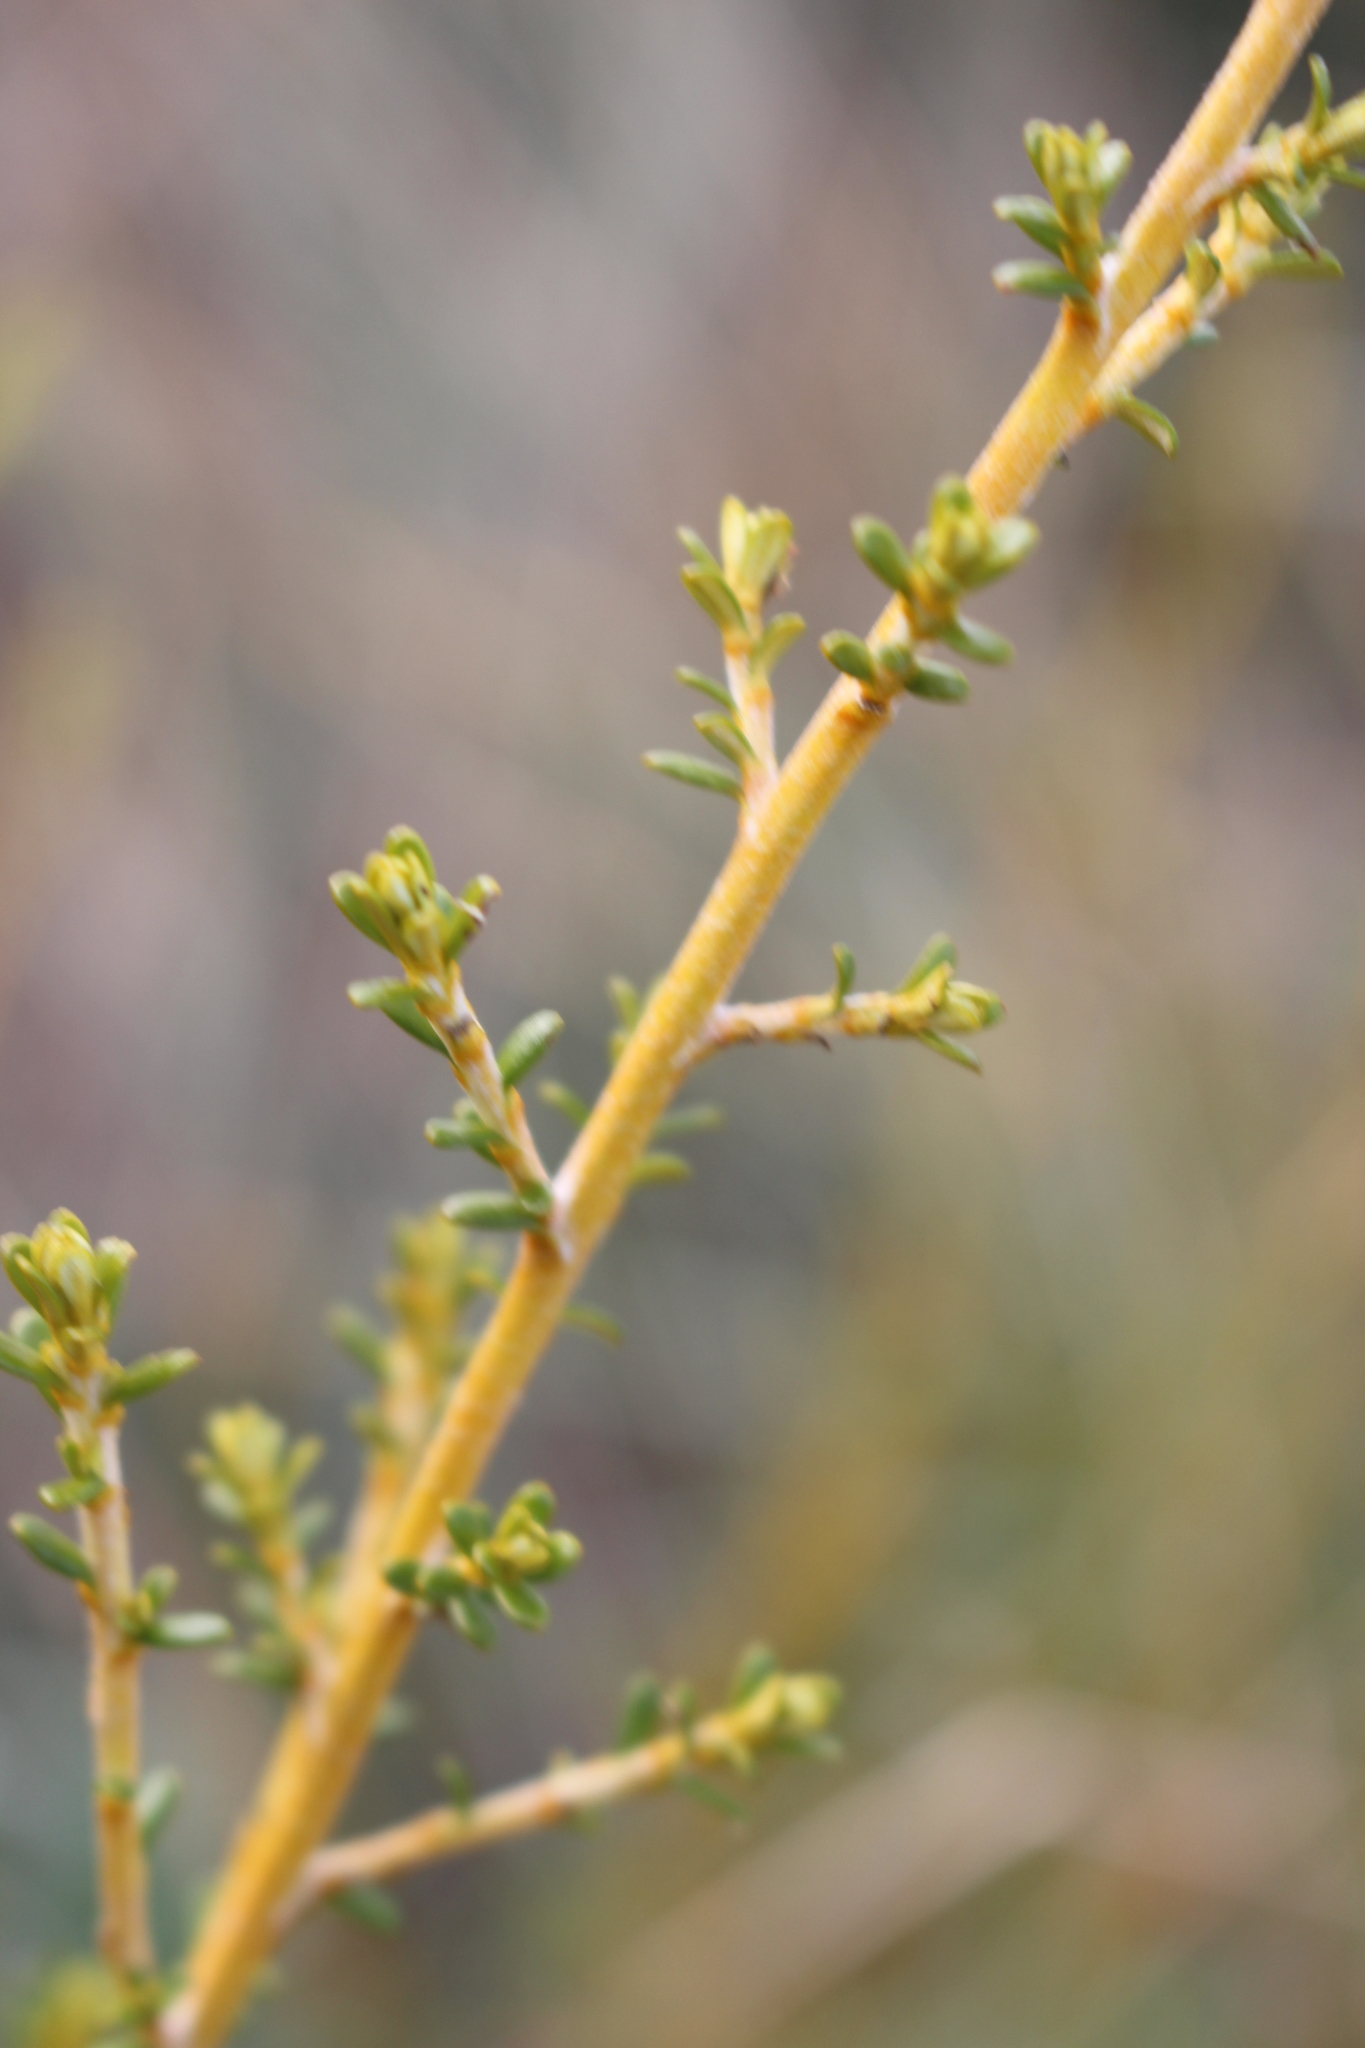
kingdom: Plantae
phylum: Tracheophyta
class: Magnoliopsida
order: Asterales
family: Asteraceae
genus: Ozothamnus
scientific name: Ozothamnus leptophyllus
